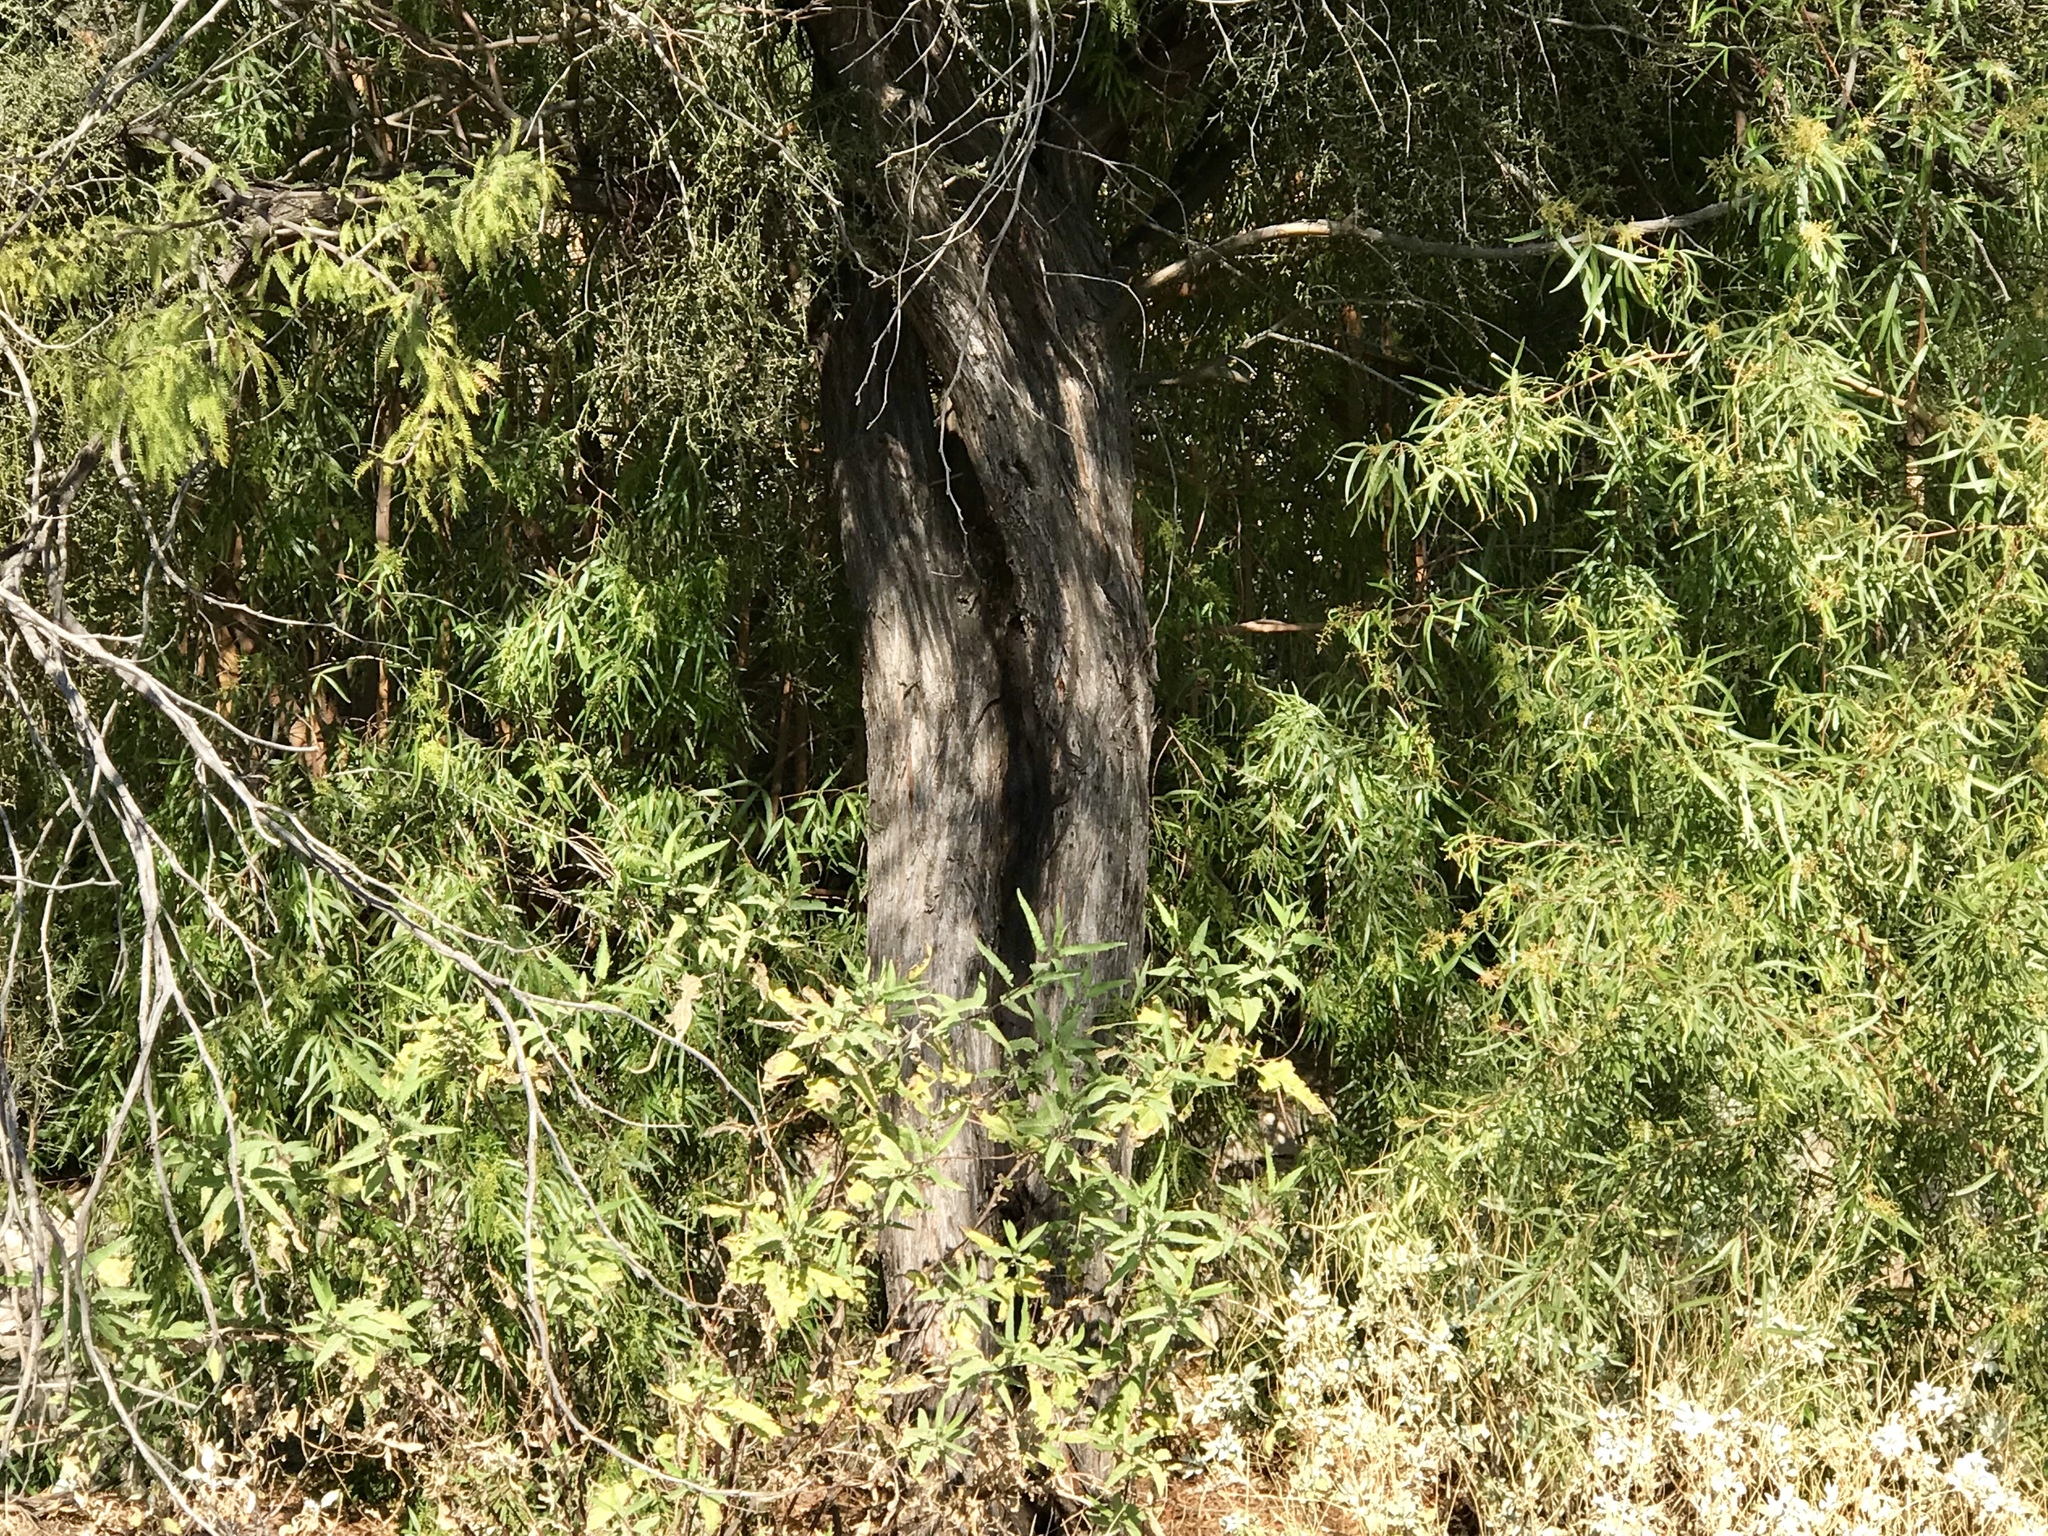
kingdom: Plantae
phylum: Tracheophyta
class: Magnoliopsida
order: Fabales
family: Fabaceae
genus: Prosopis
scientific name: Prosopis glandulosa
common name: Honey mesquite
